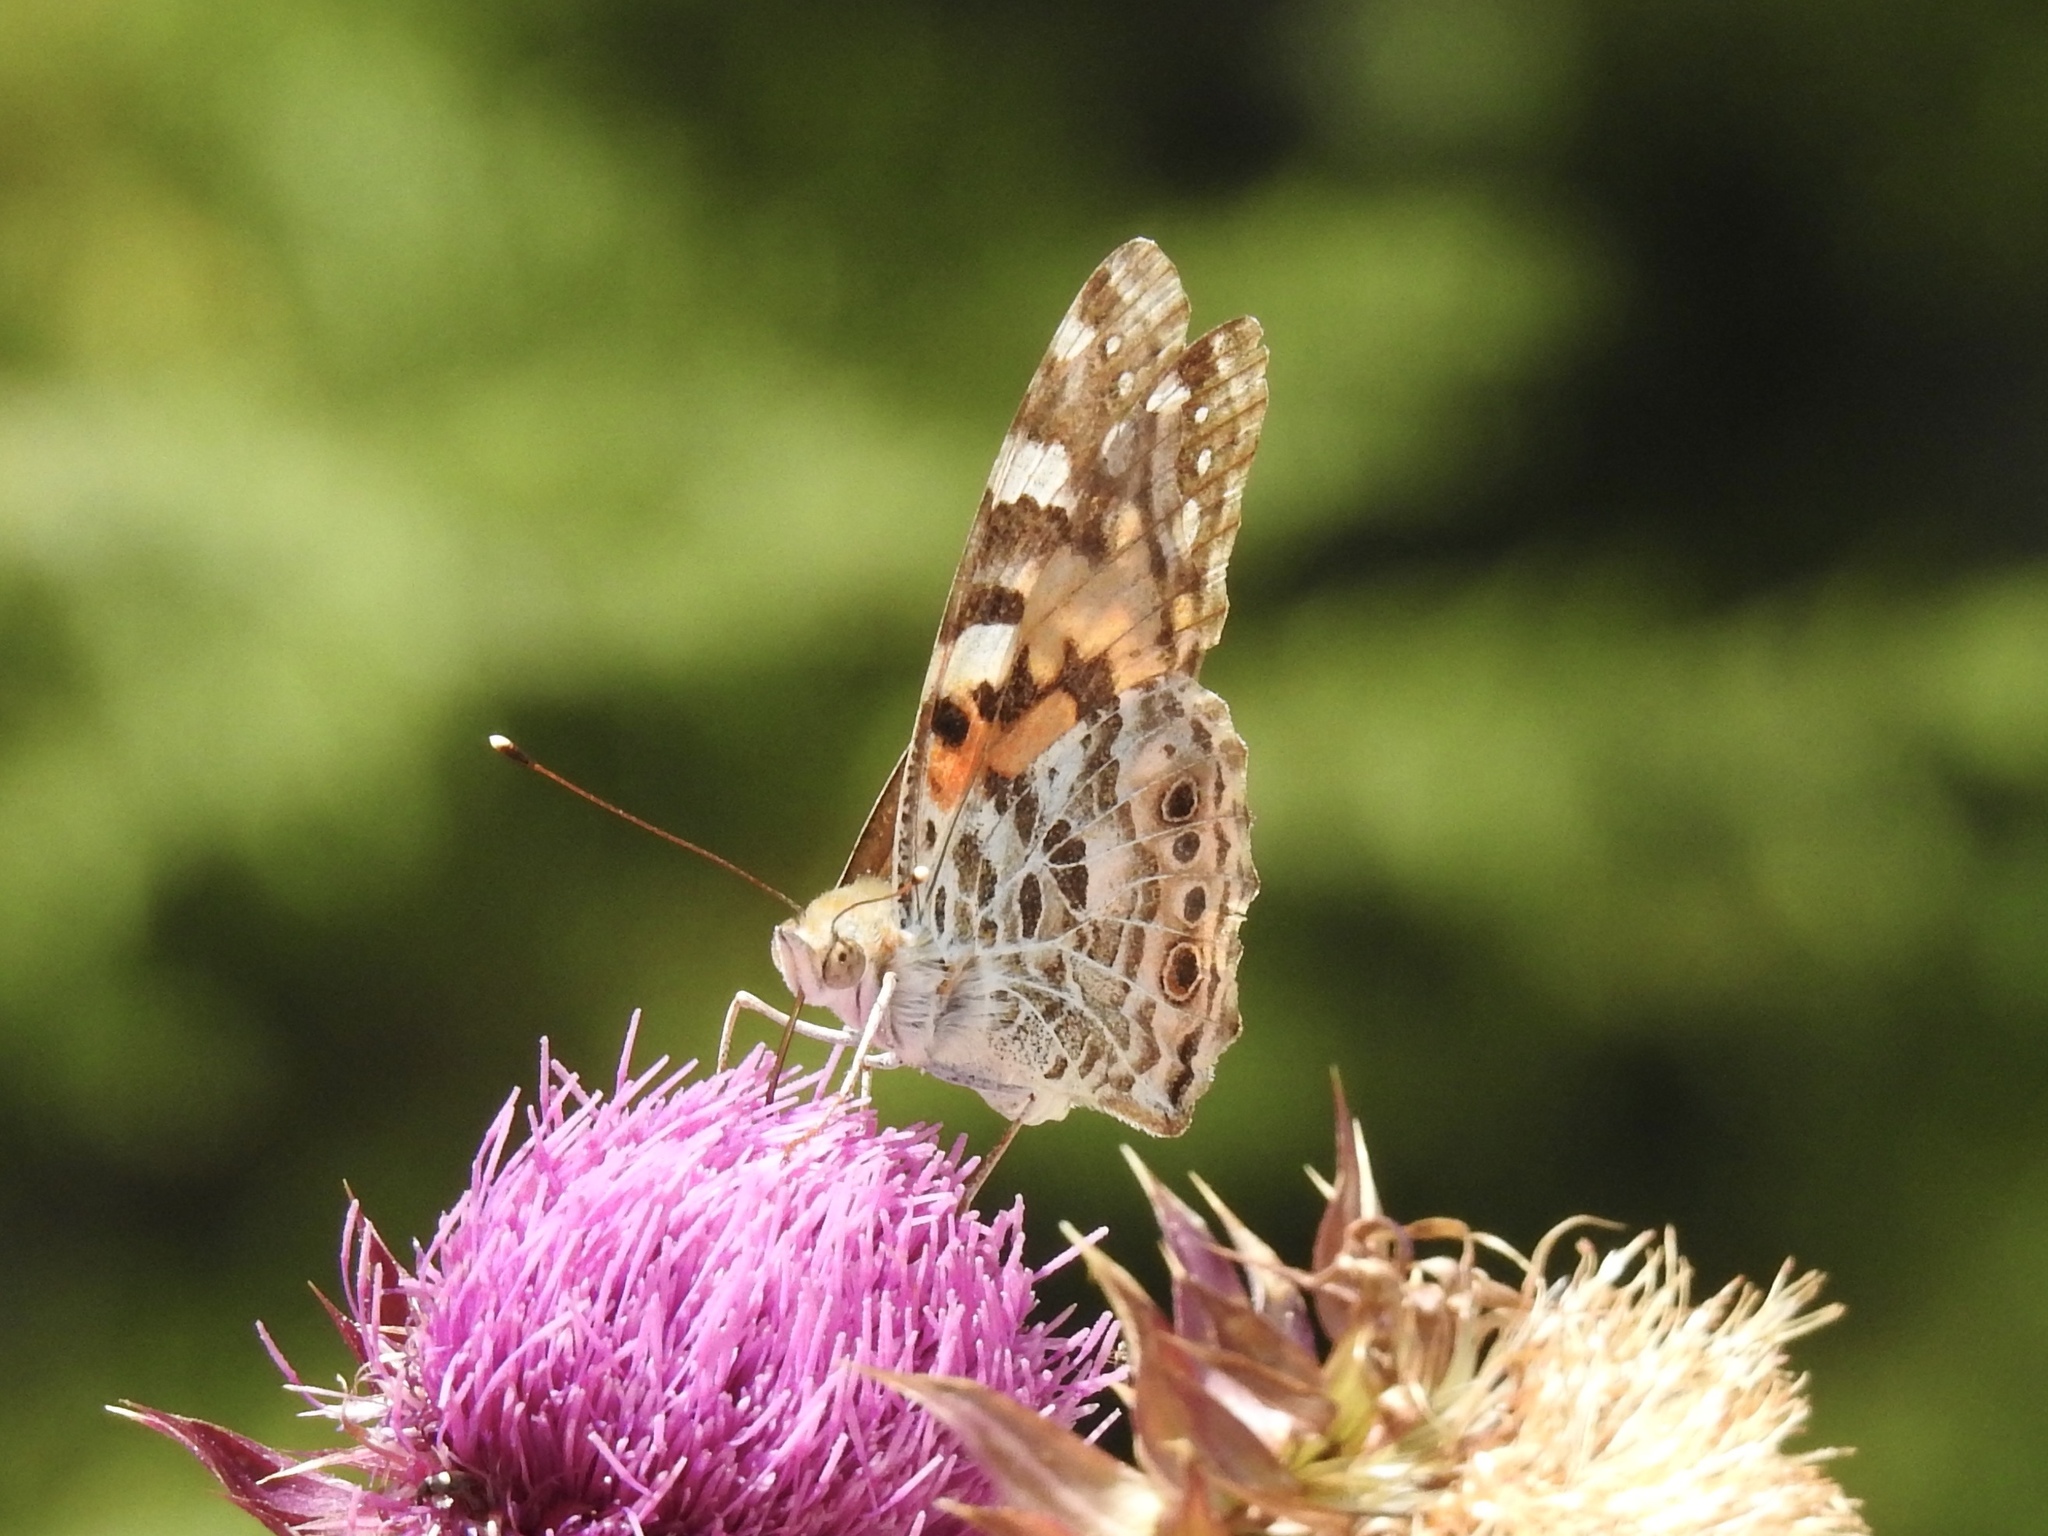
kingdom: Animalia
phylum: Arthropoda
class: Insecta
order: Lepidoptera
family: Nymphalidae
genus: Vanessa
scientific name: Vanessa cardui
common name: Painted lady
